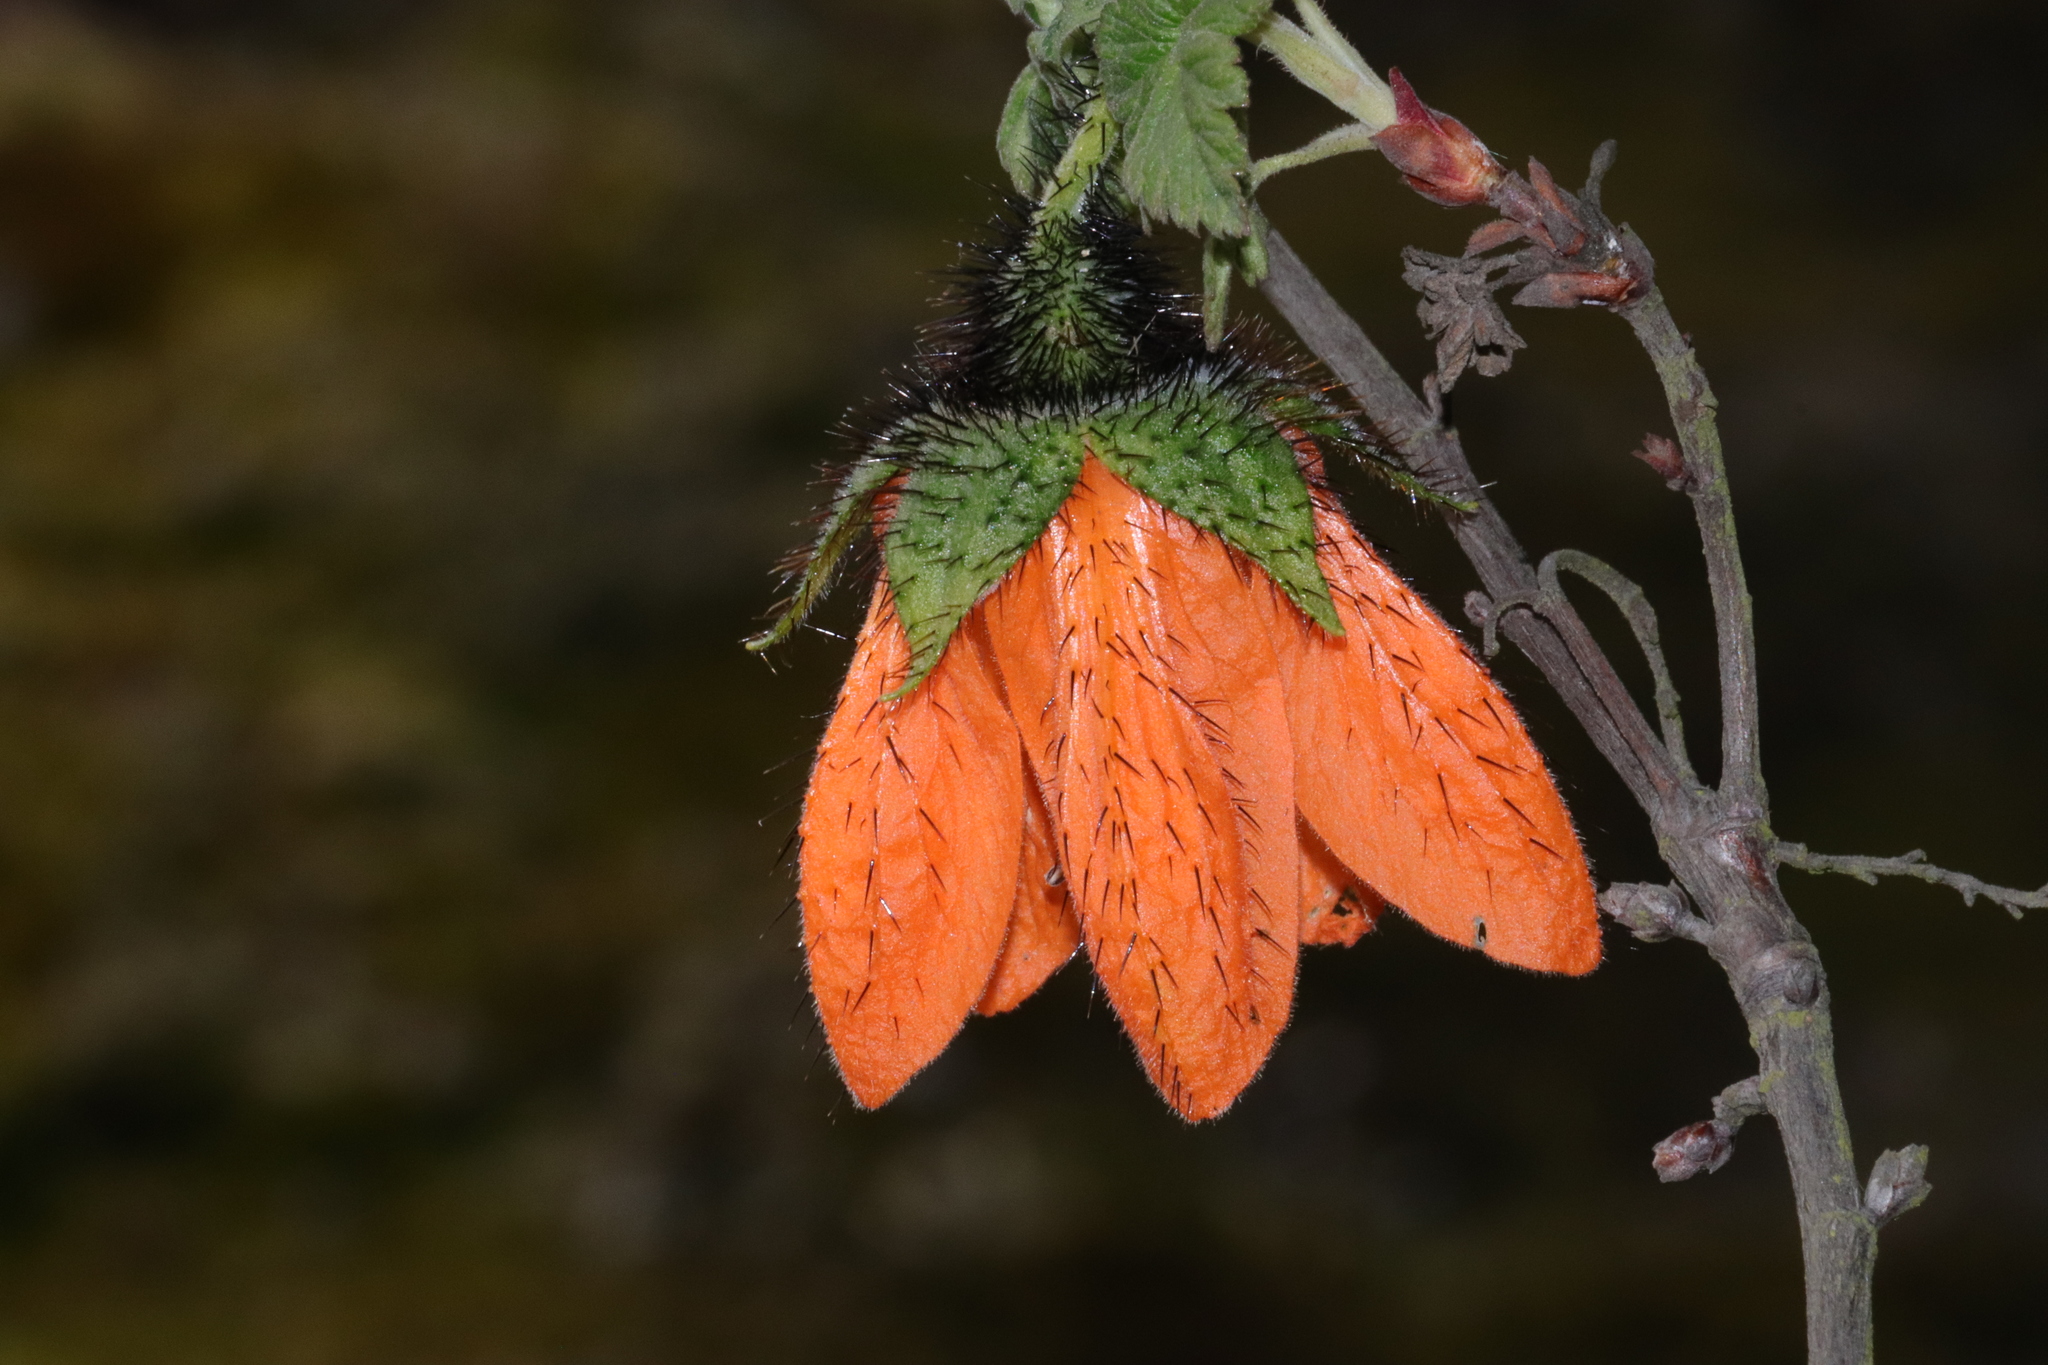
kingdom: Plantae
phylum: Tracheophyta
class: Magnoliopsida
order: Cornales
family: Loasaceae
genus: Nasa
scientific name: Nasa ranunculifolia
